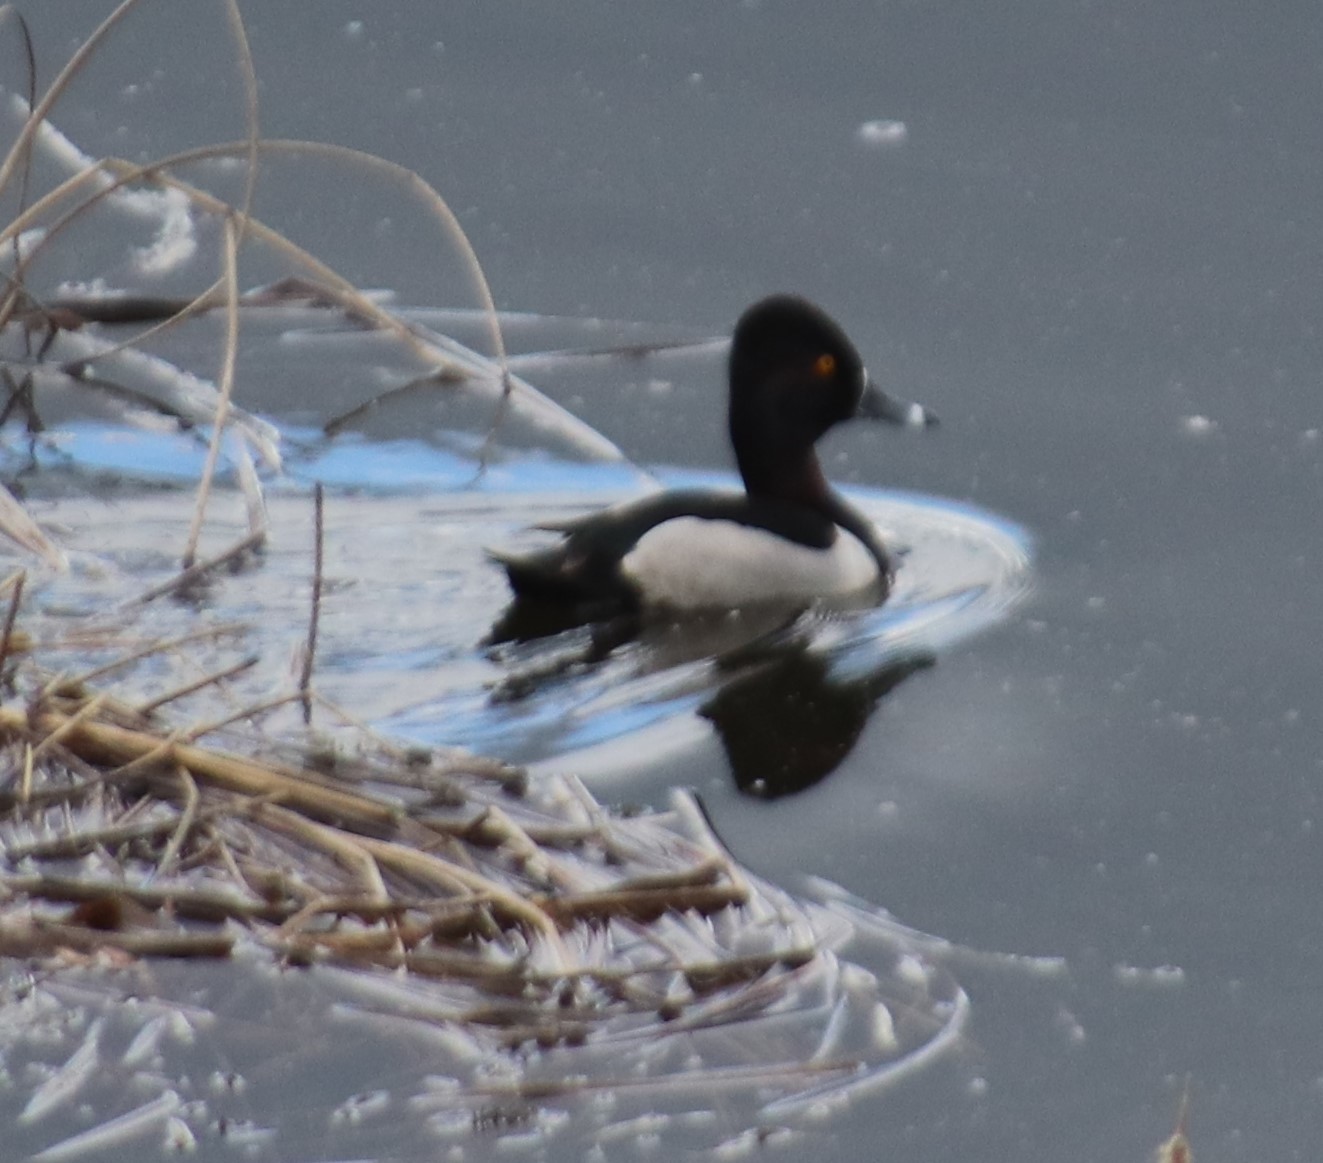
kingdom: Animalia
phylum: Chordata
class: Aves
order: Anseriformes
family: Anatidae
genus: Aythya
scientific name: Aythya collaris
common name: Ring-necked duck
